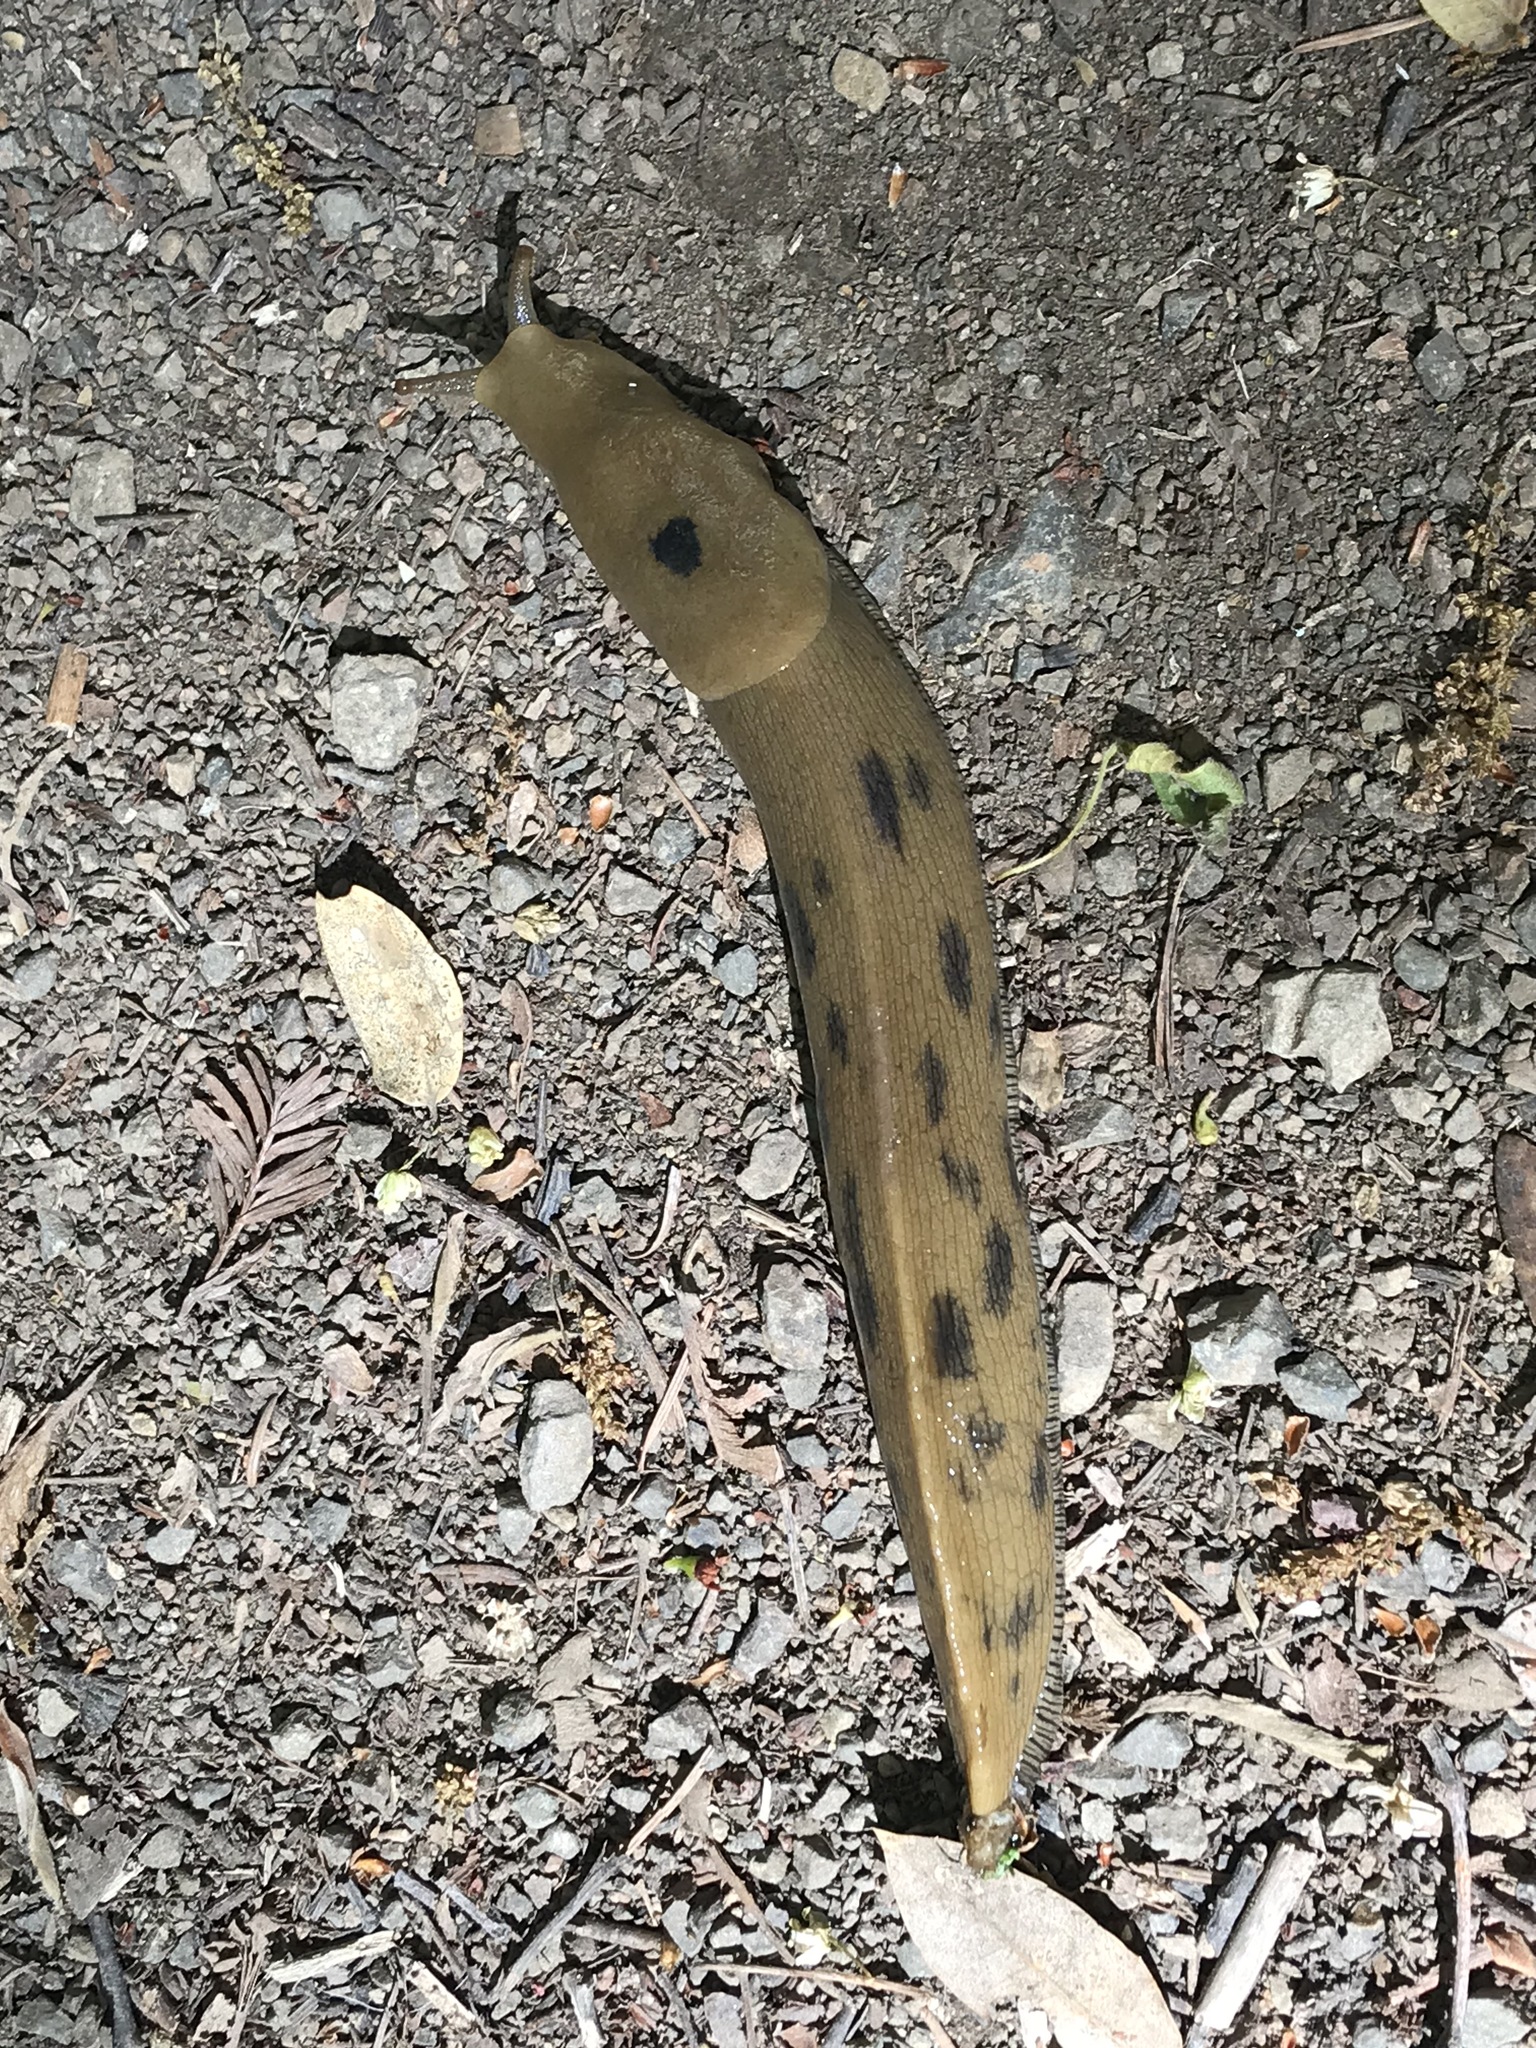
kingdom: Animalia
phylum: Mollusca
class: Gastropoda
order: Stylommatophora
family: Ariolimacidae
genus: Ariolimax
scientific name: Ariolimax buttoni
